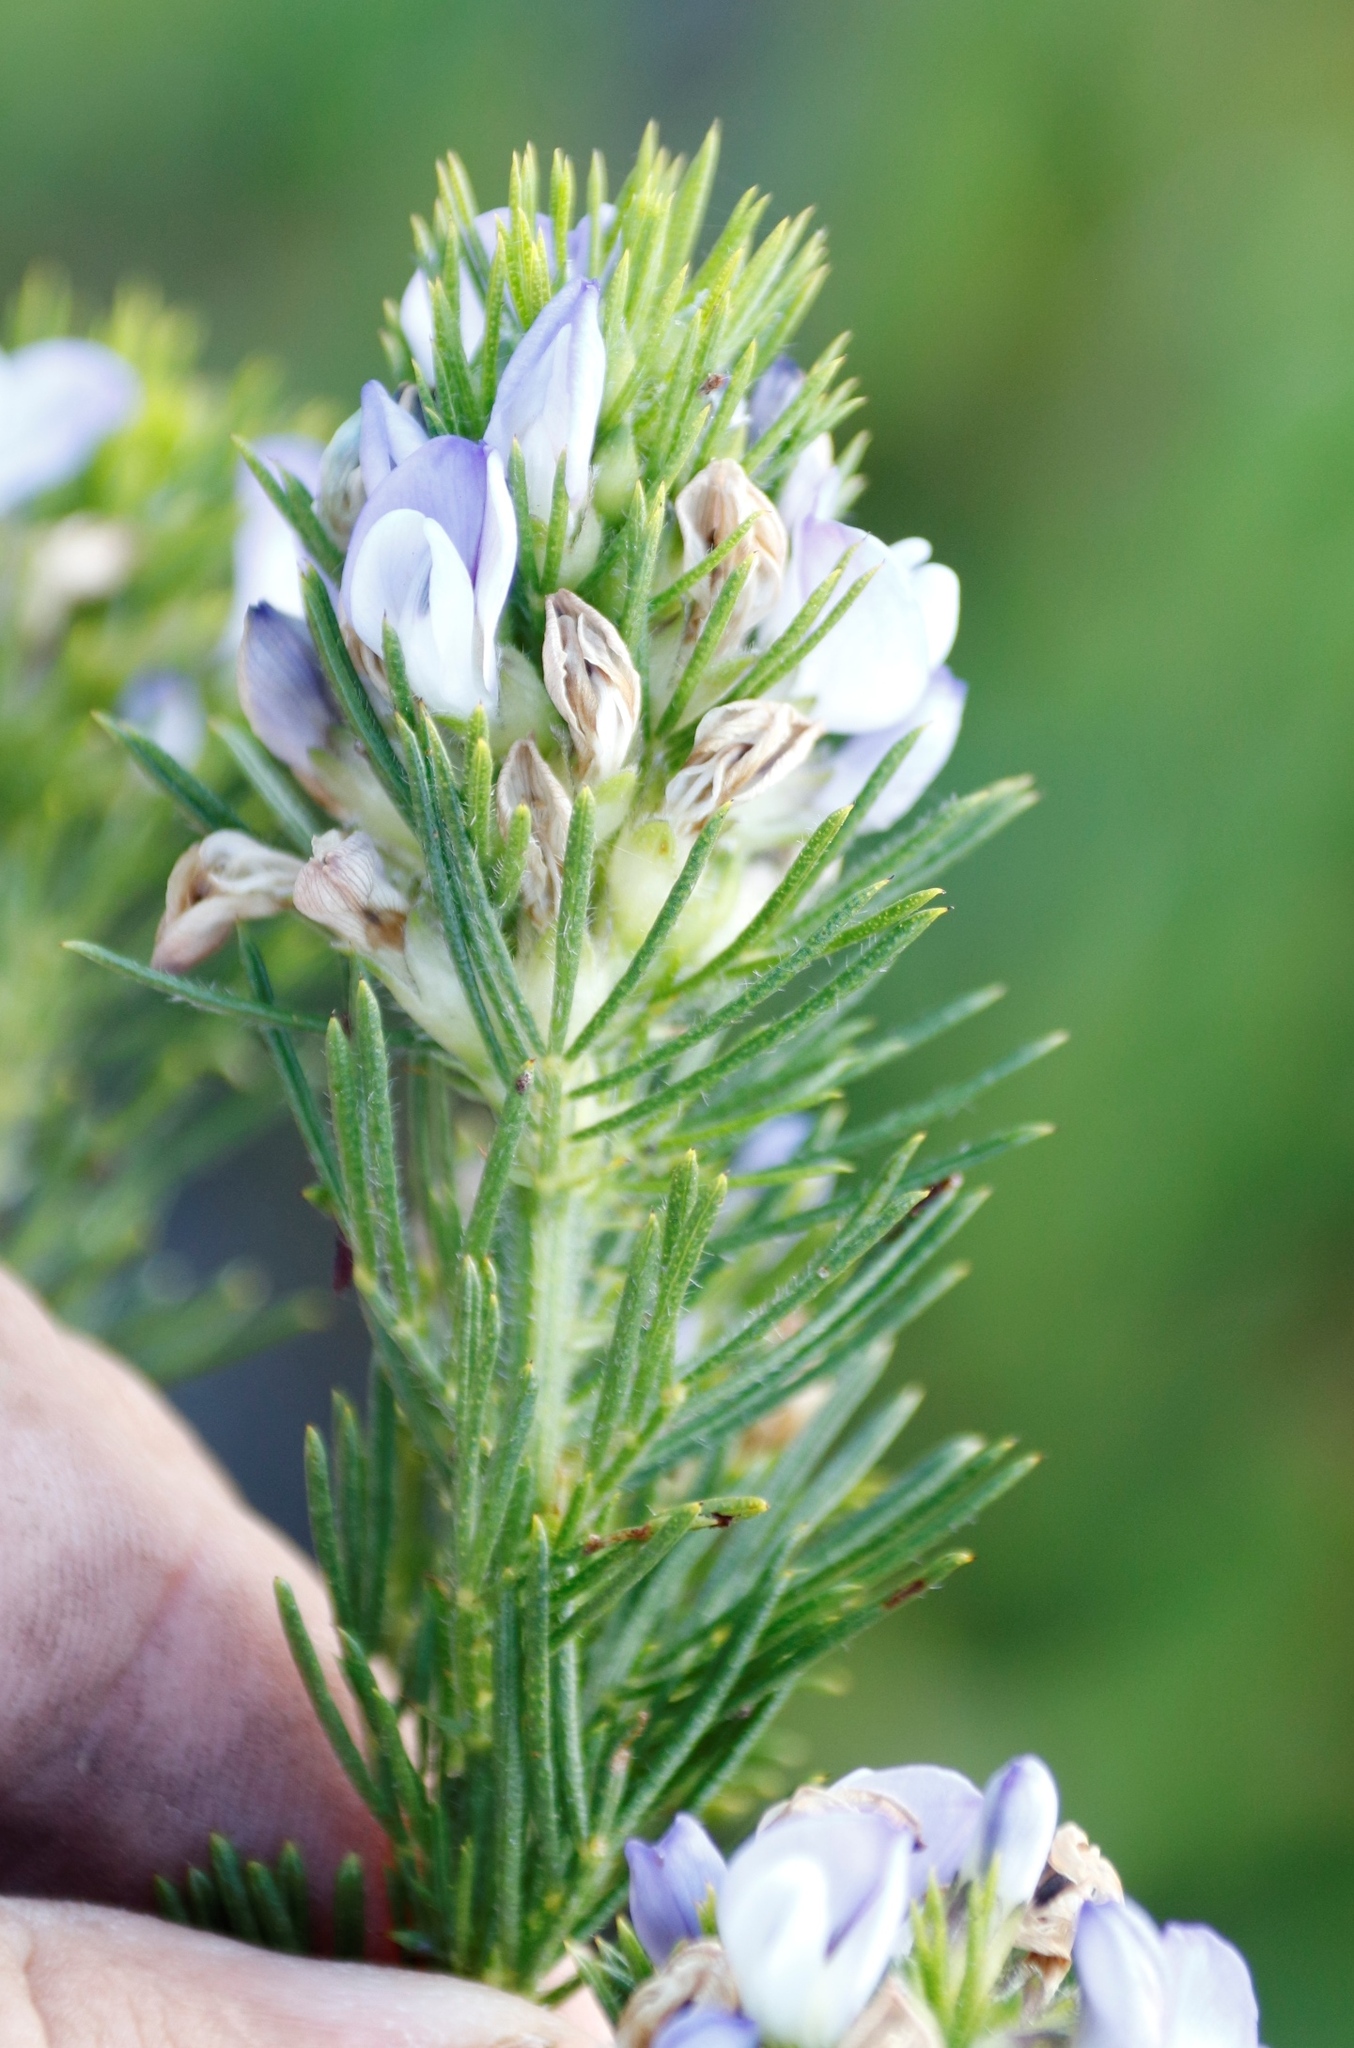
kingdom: Plantae
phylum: Tracheophyta
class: Magnoliopsida
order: Fabales
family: Fabaceae
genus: Psoralea
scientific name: Psoralea pinnata
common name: African scurfpea
